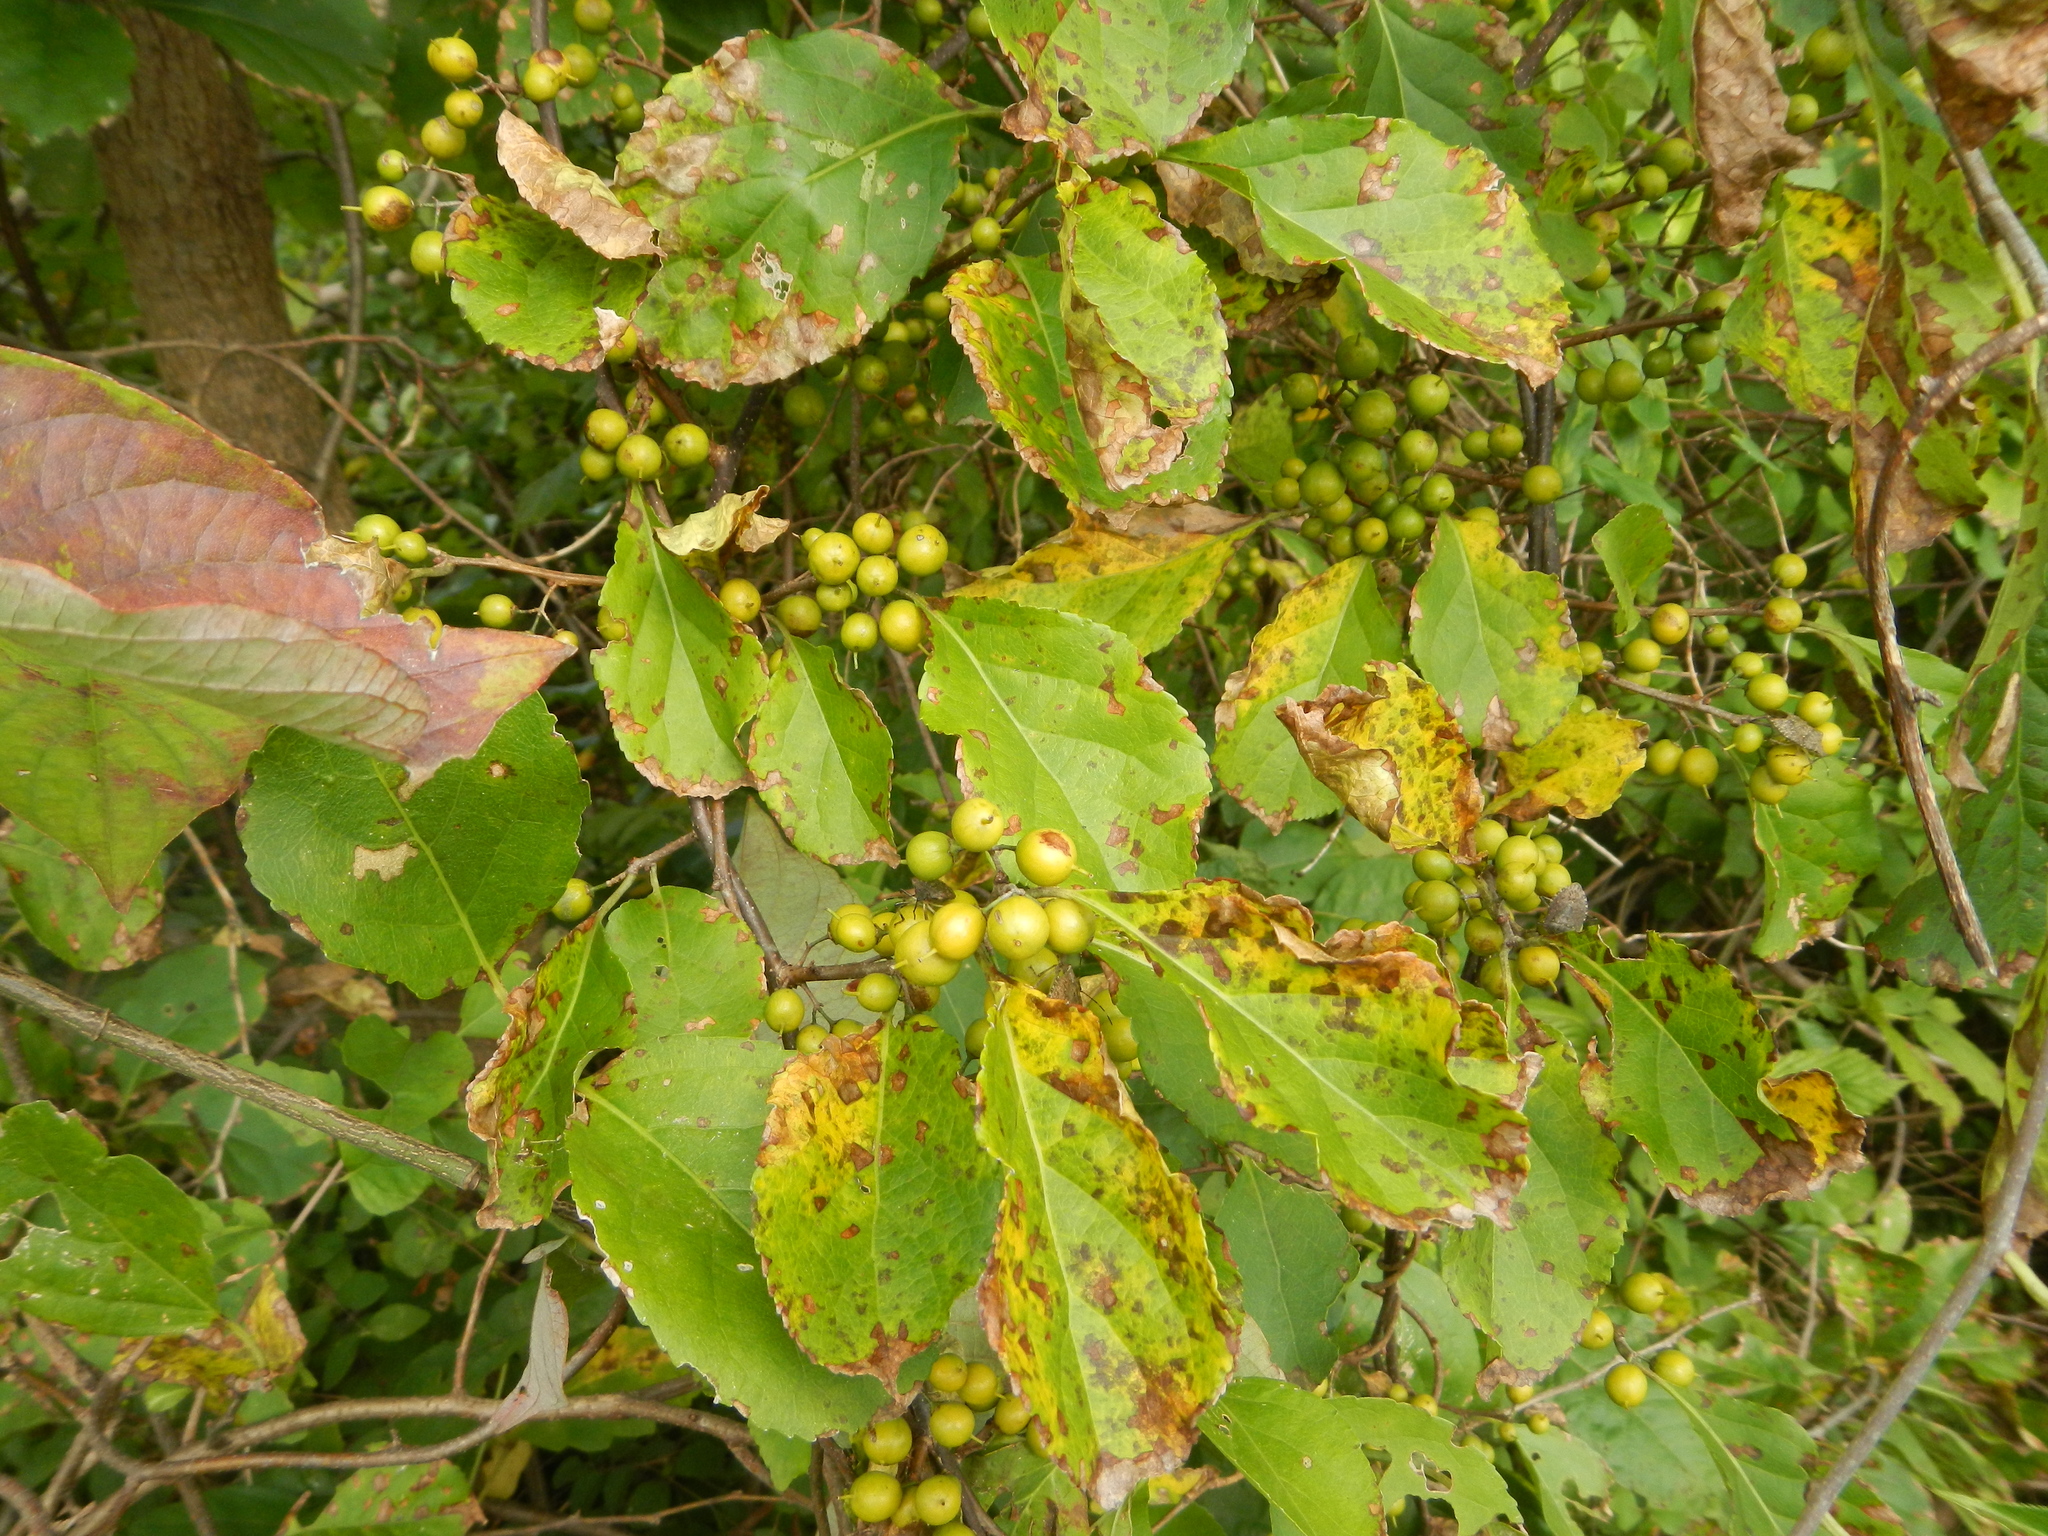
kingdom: Plantae
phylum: Tracheophyta
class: Magnoliopsida
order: Celastrales
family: Celastraceae
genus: Celastrus
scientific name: Celastrus orbiculatus
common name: Oriental bittersweet
